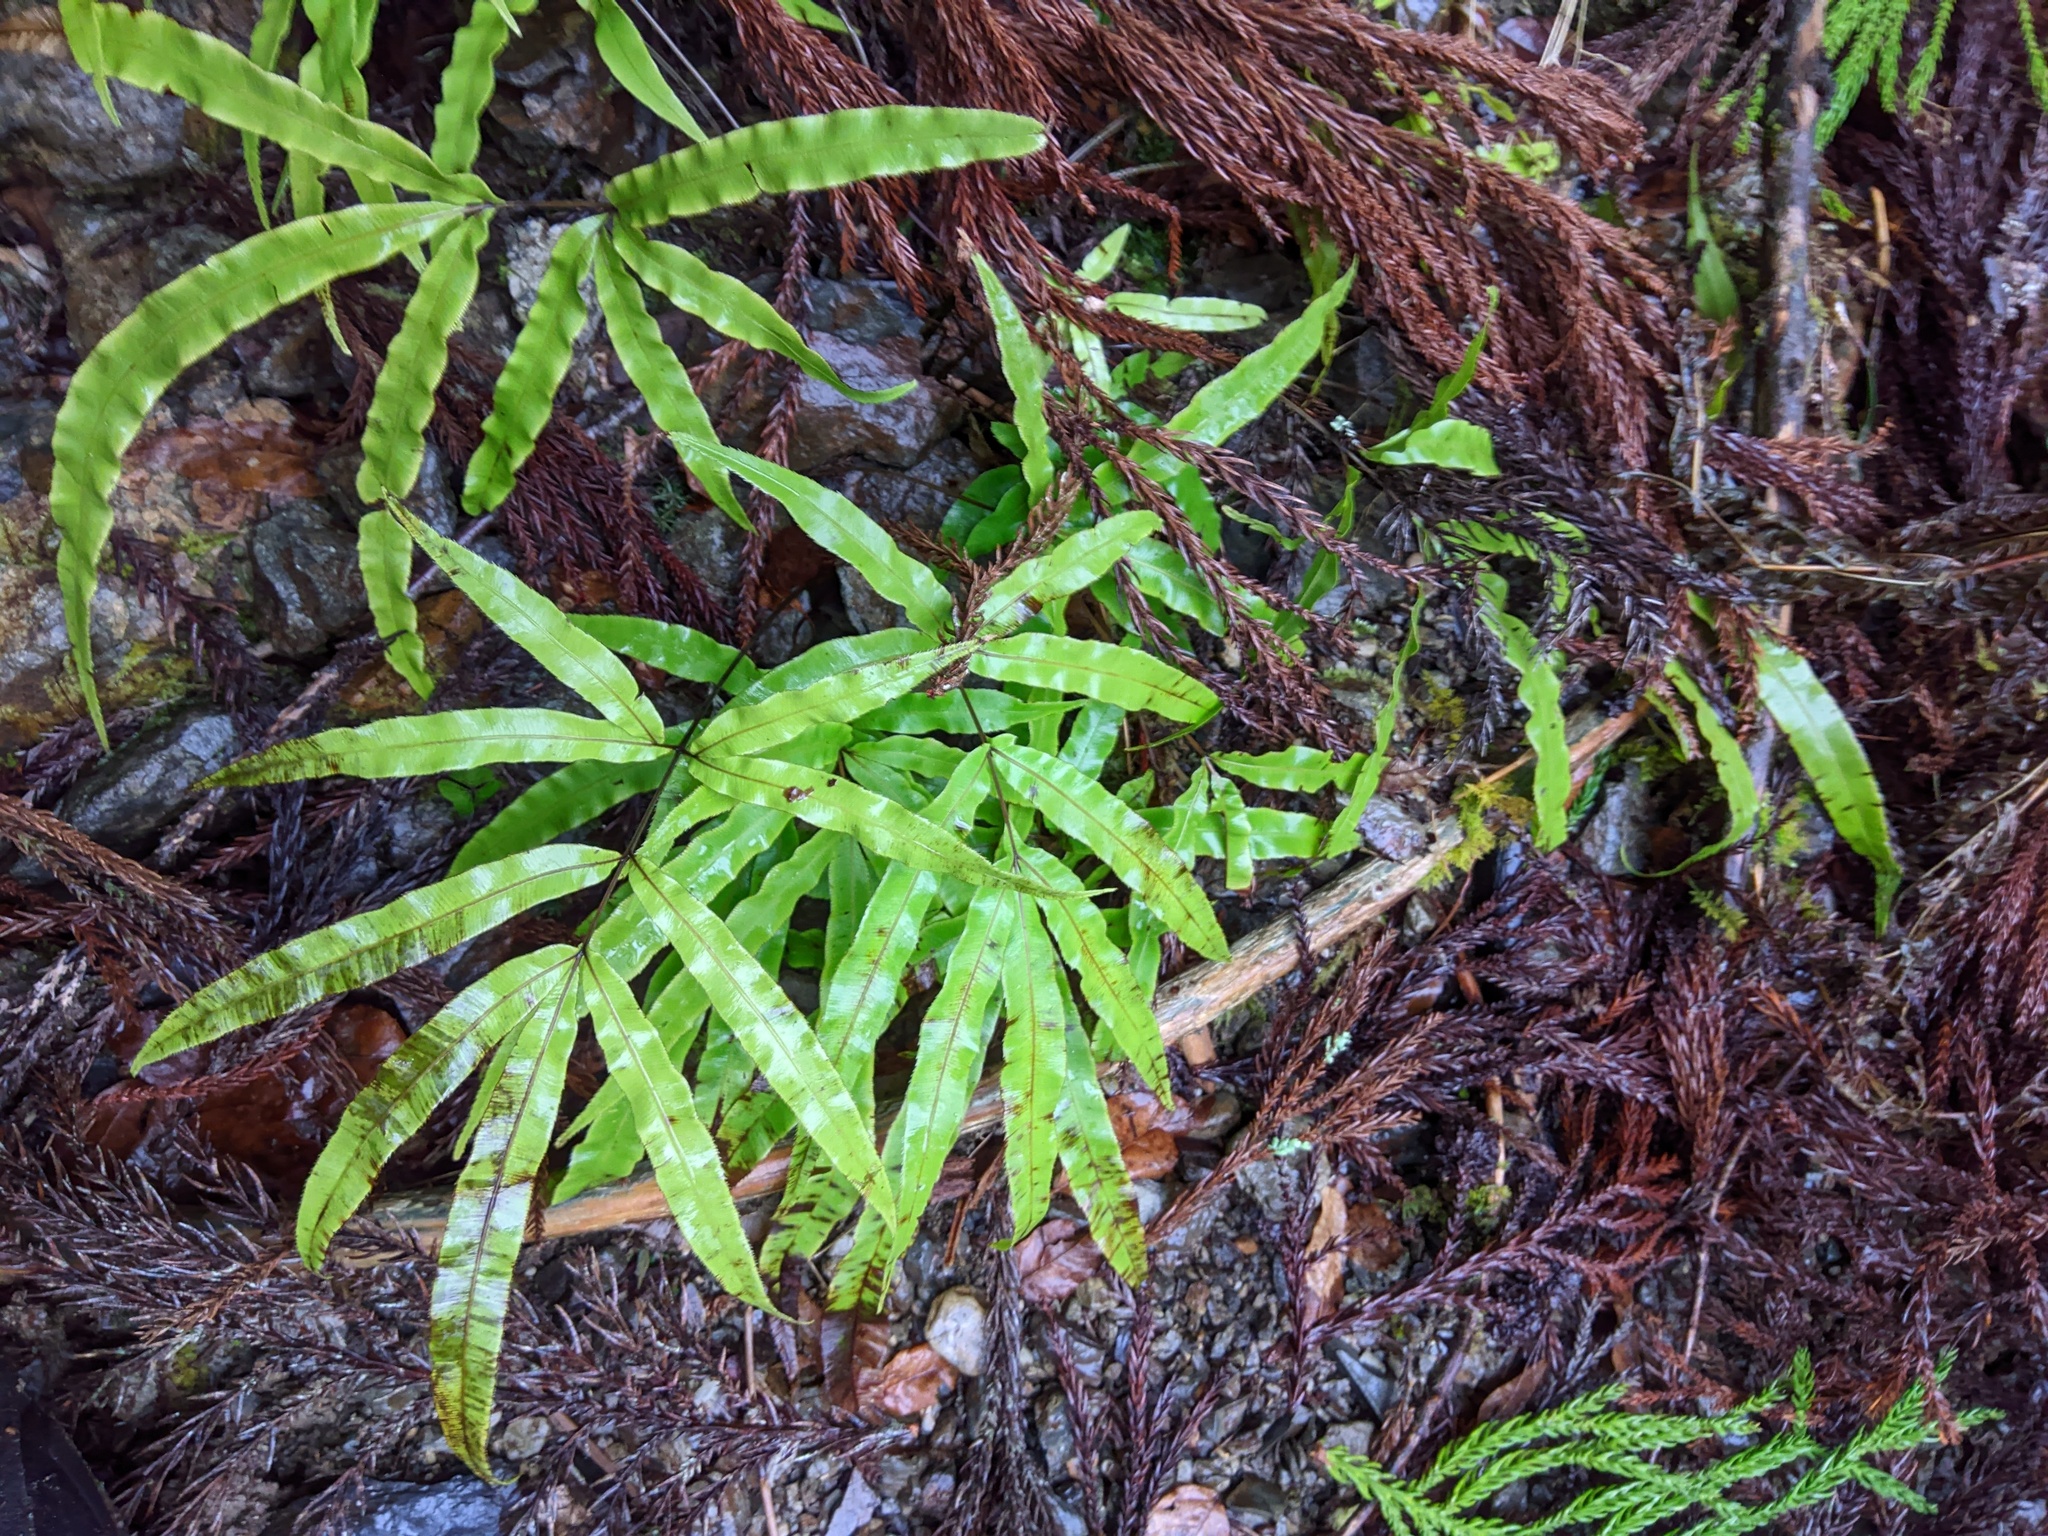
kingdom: Plantae
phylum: Tracheophyta
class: Polypodiopsida
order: Polypodiales
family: Pteridaceae
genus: Pteris
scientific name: Pteris cretica
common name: Ribbon fern
